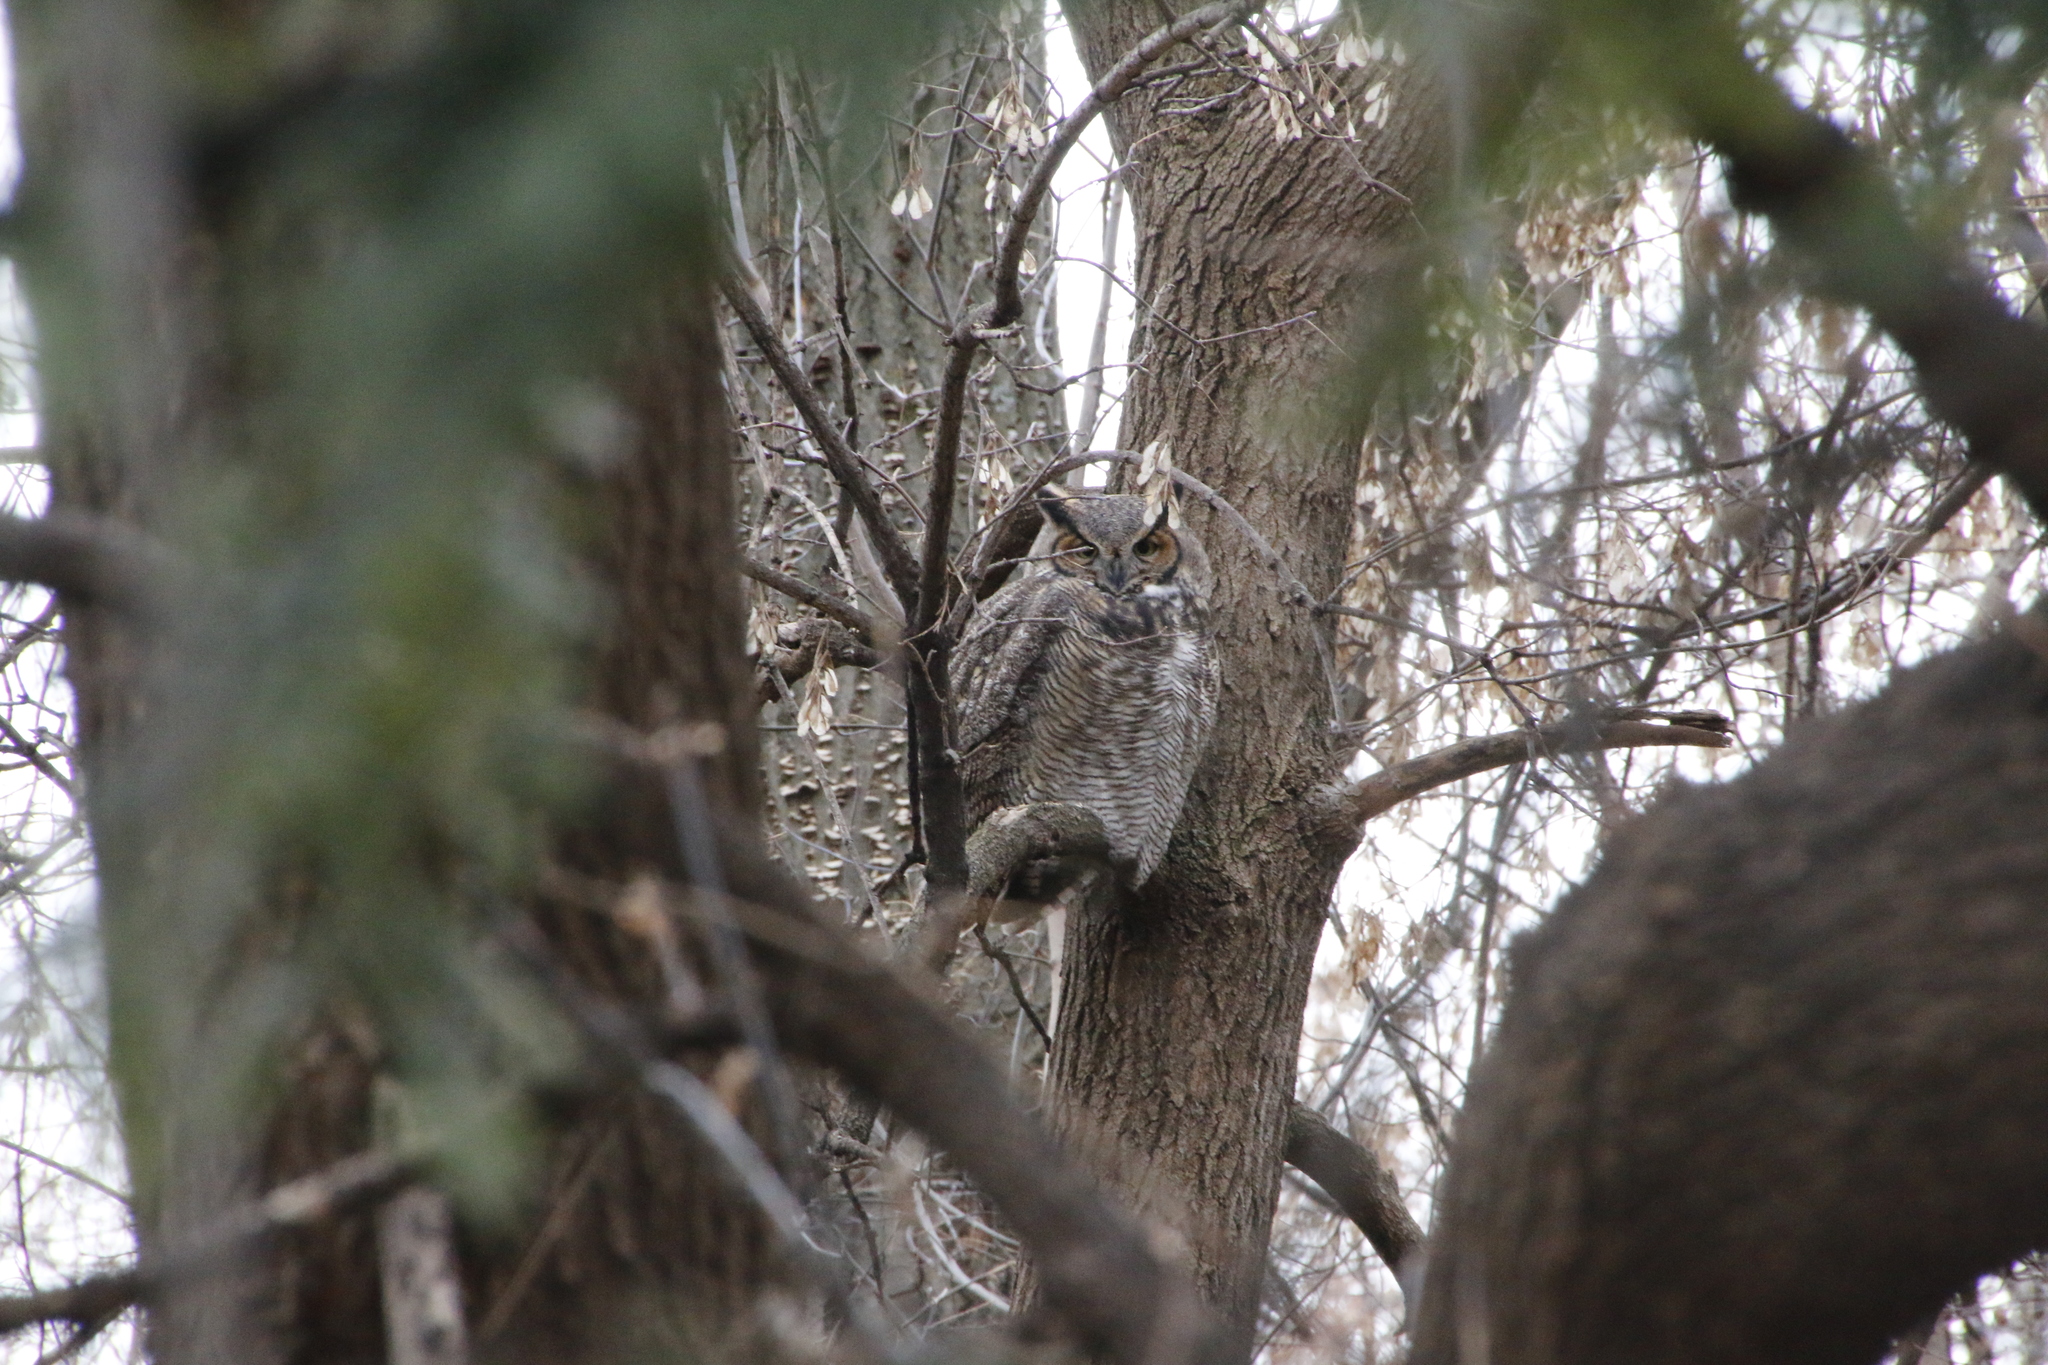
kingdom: Animalia
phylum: Chordata
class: Aves
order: Strigiformes
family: Strigidae
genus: Bubo
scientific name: Bubo virginianus
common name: Great horned owl
